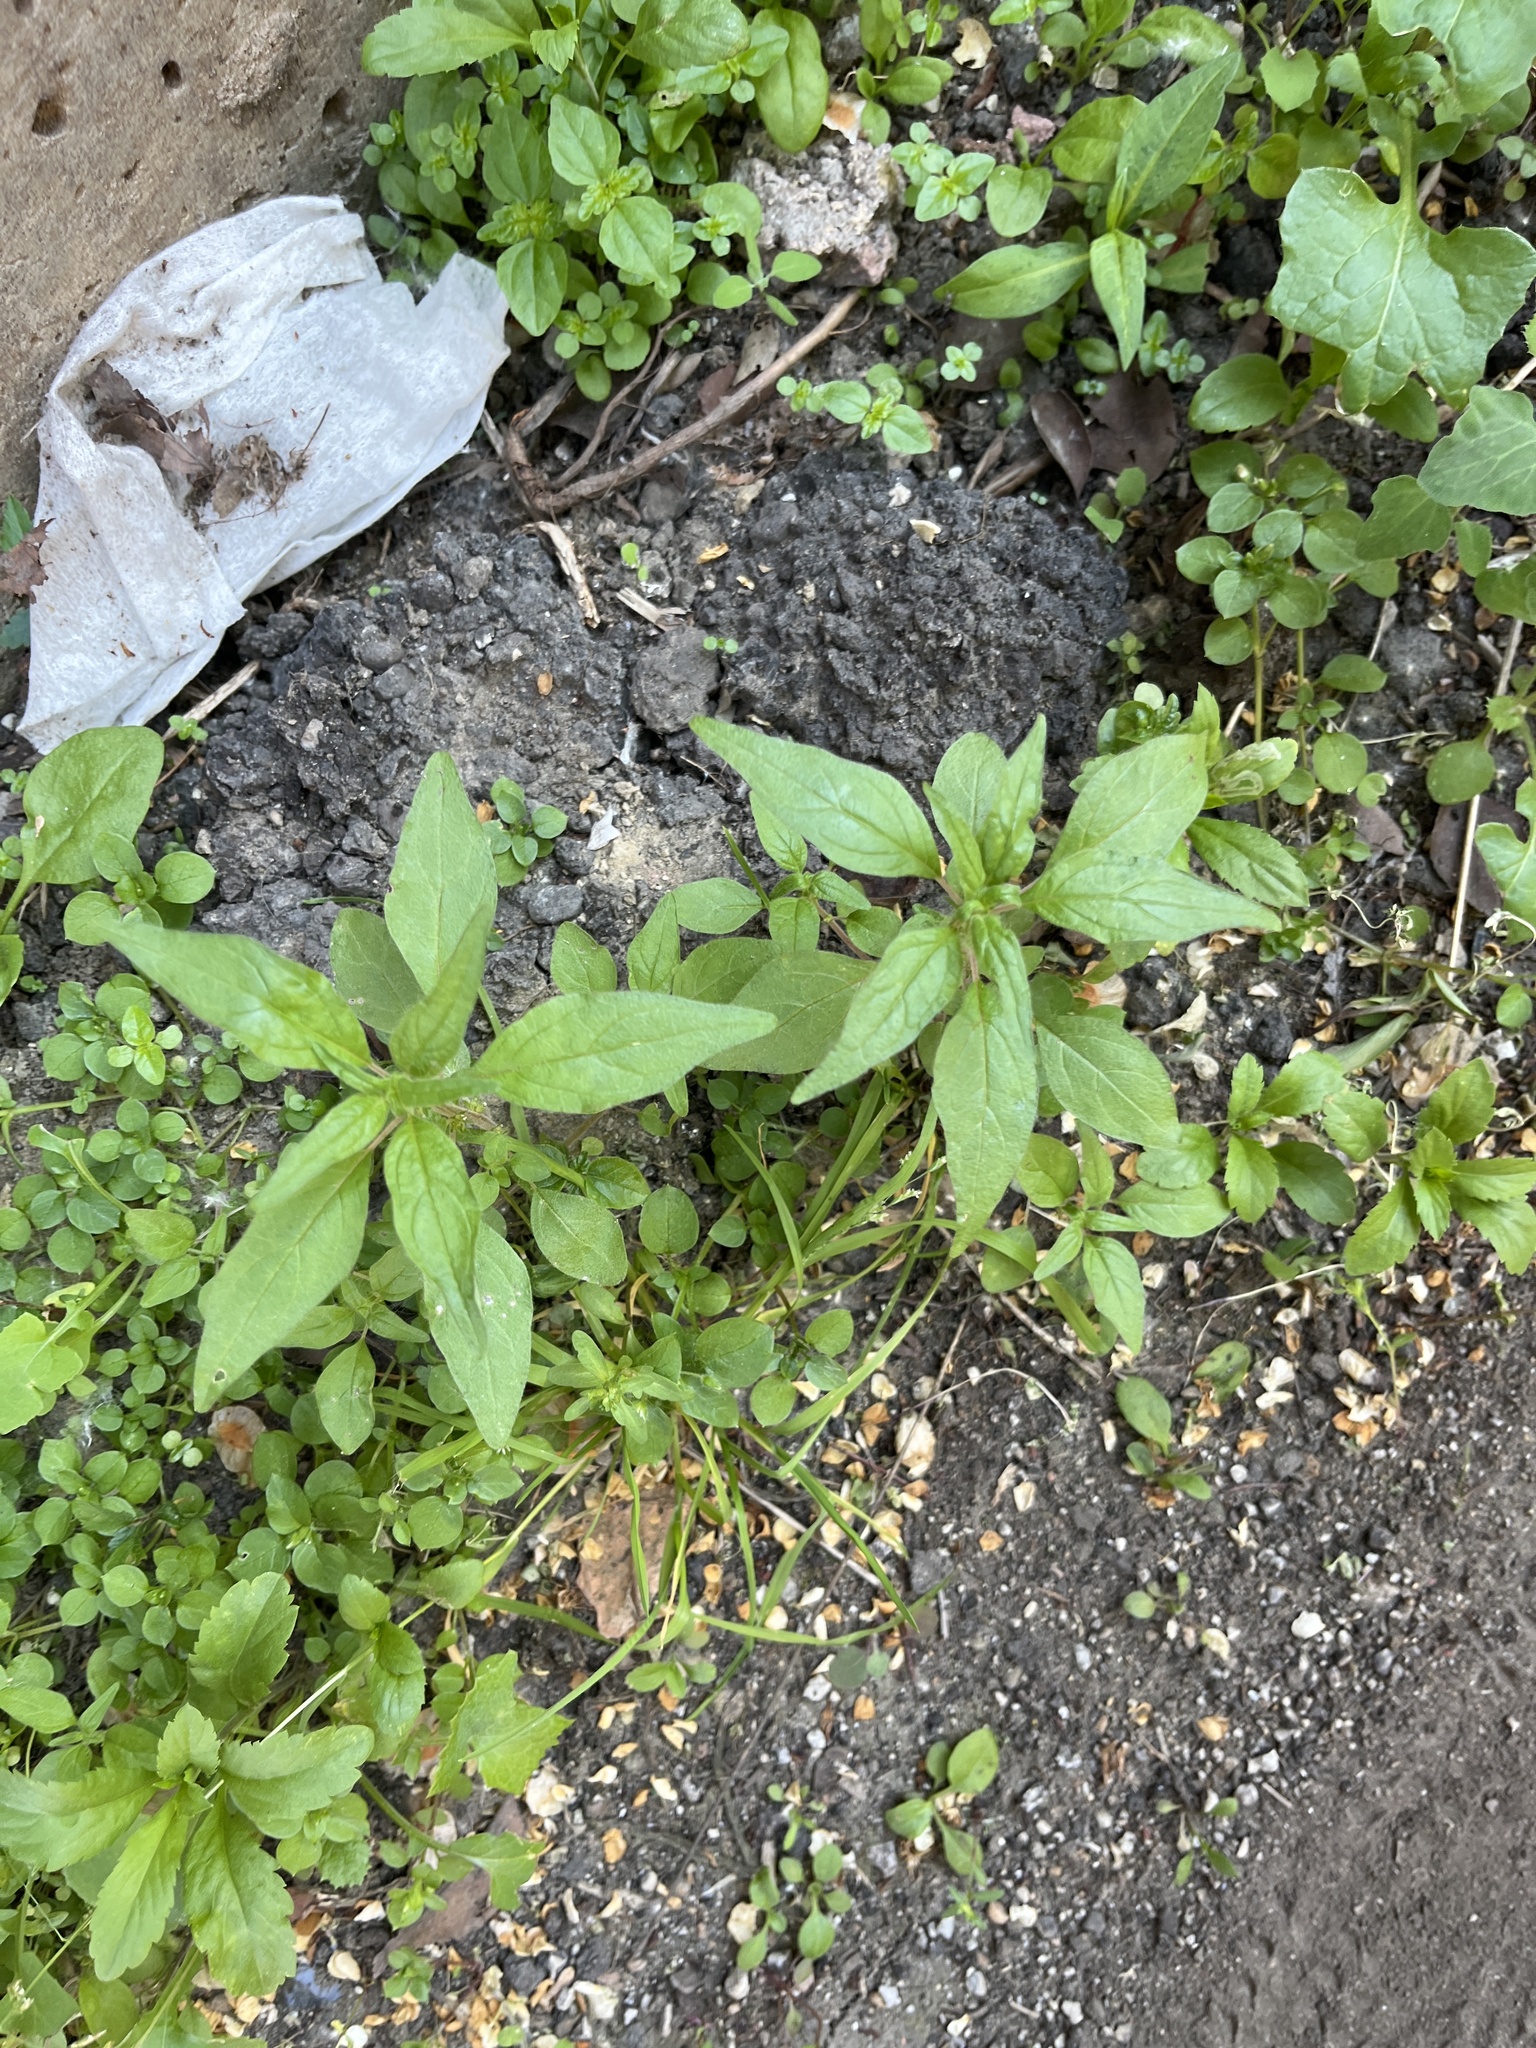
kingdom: Plantae
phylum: Tracheophyta
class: Magnoliopsida
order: Rosales
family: Urticaceae
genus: Parietaria
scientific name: Parietaria pensylvanica
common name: Pennsylvania pellitory
